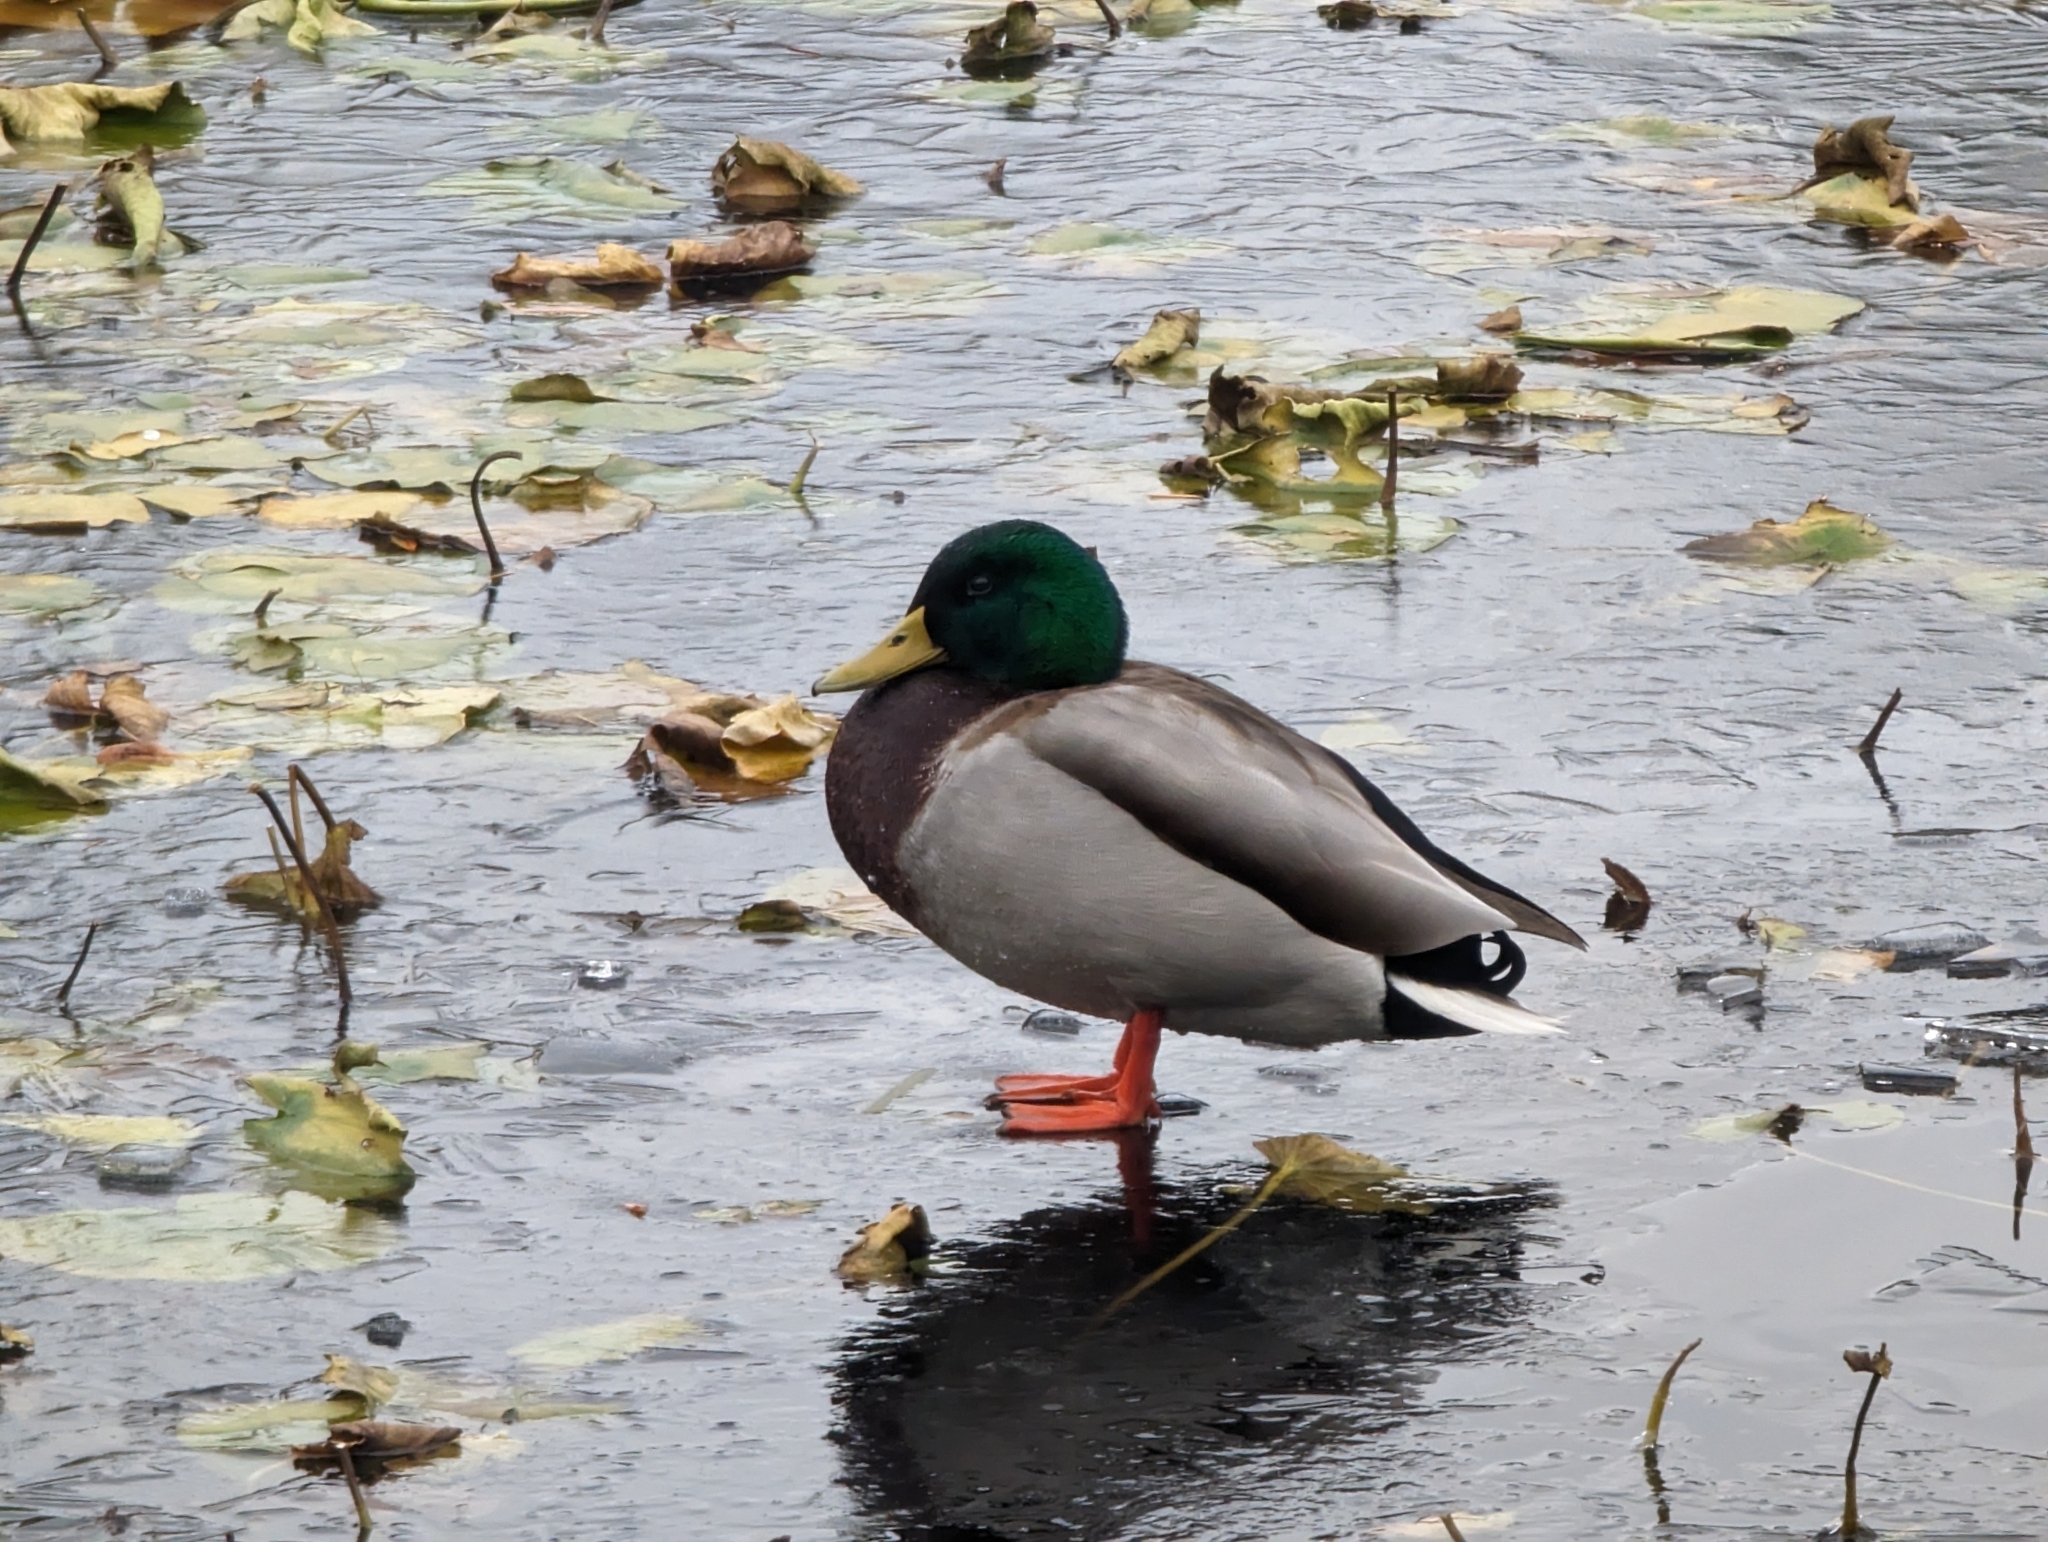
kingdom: Animalia
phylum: Chordata
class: Aves
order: Anseriformes
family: Anatidae
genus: Anas
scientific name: Anas platyrhynchos
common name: Mallard
